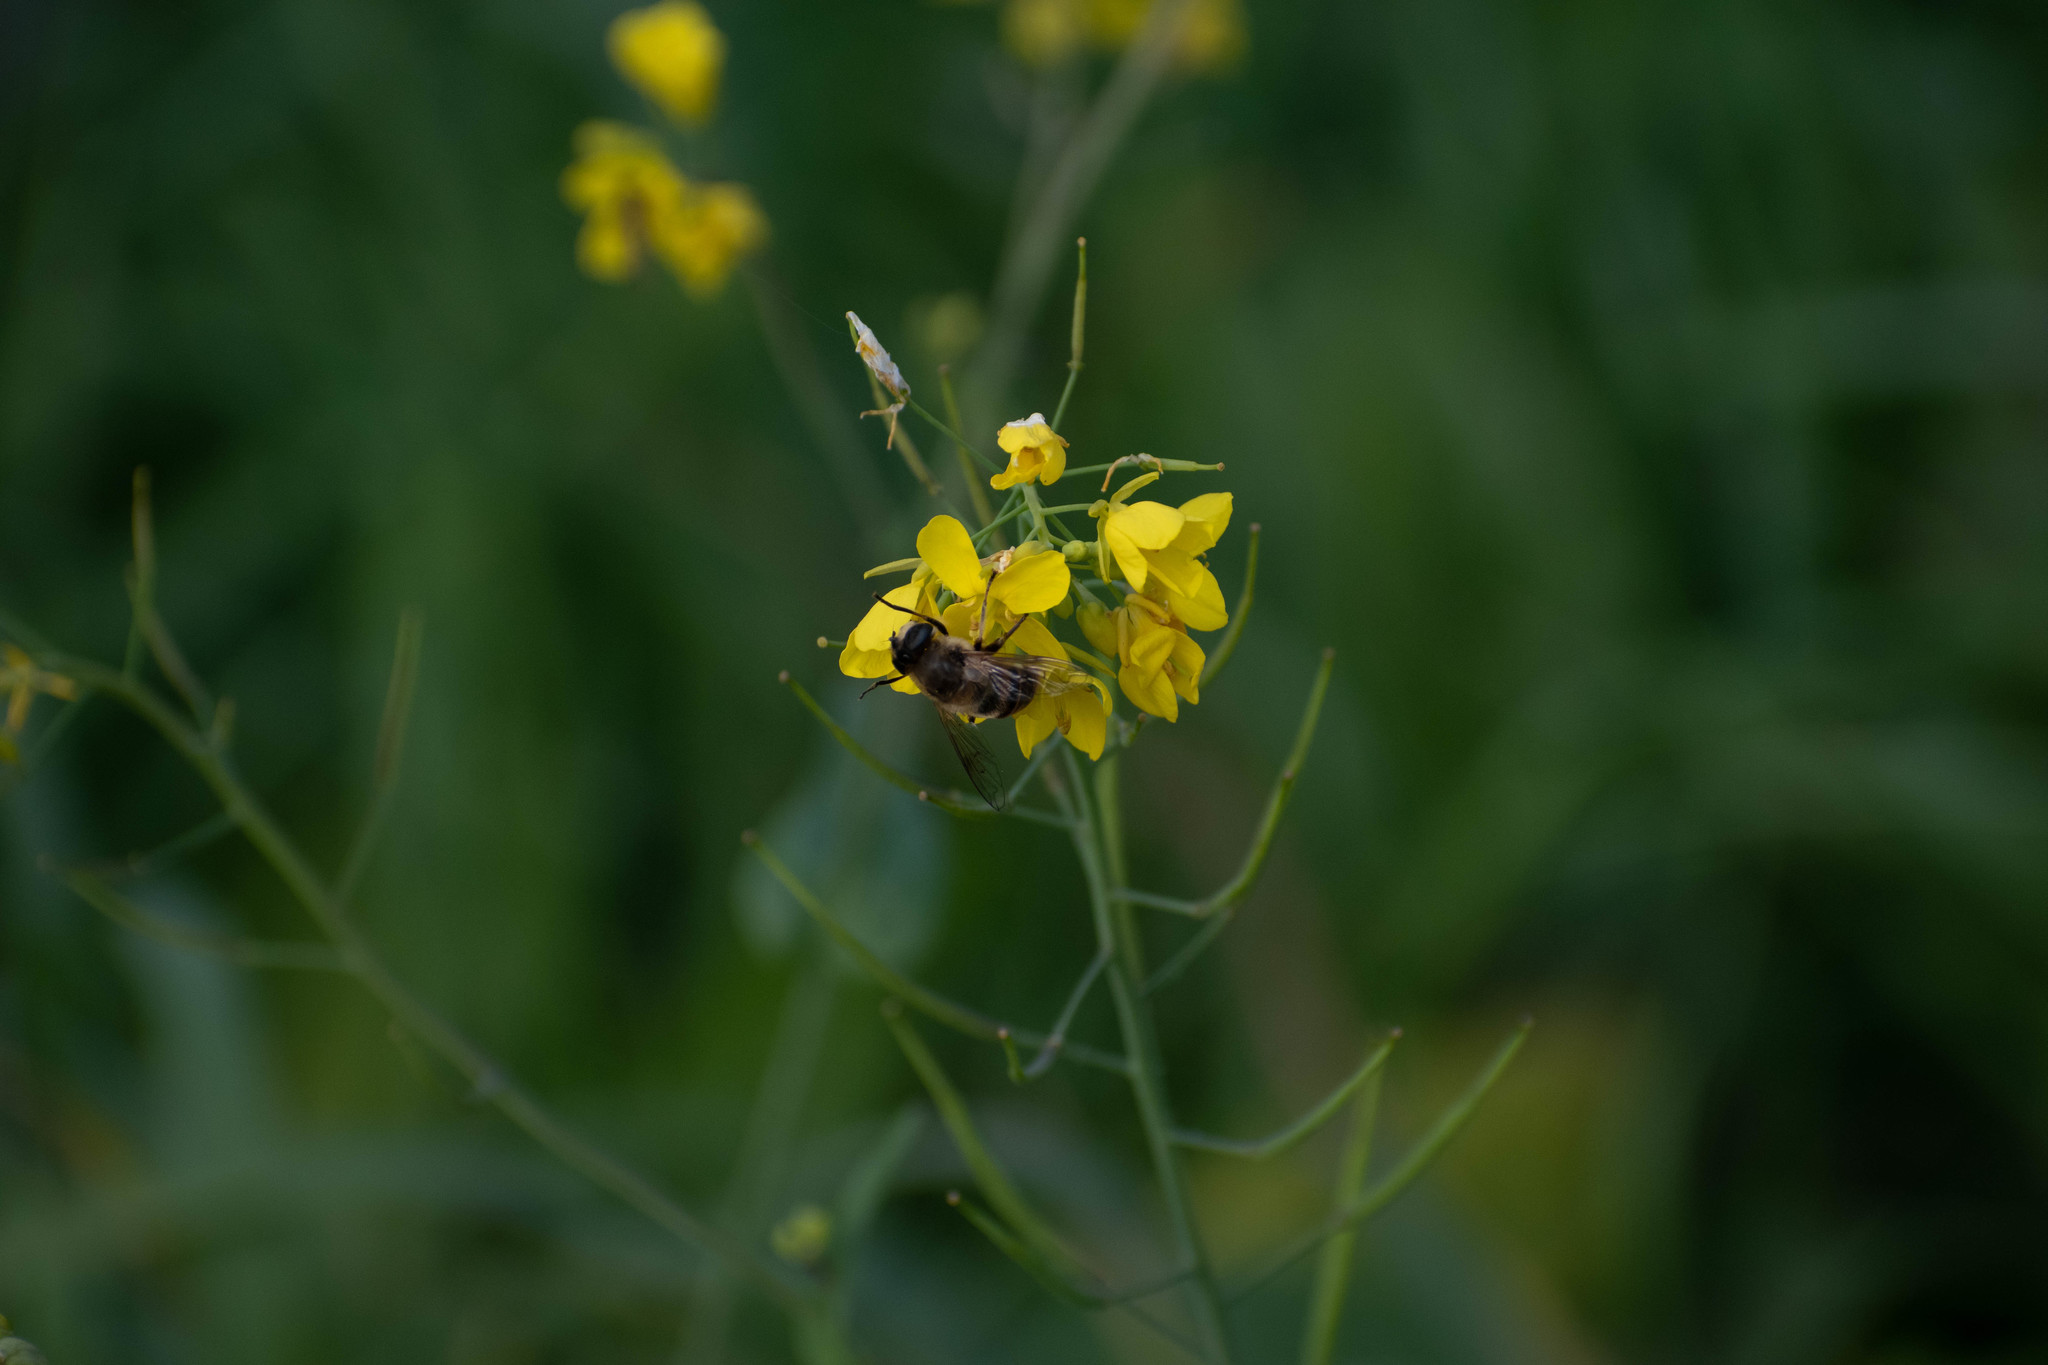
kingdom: Animalia
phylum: Arthropoda
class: Insecta
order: Diptera
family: Syrphidae
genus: Eristalis
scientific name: Eristalis tenax
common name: Drone fly
